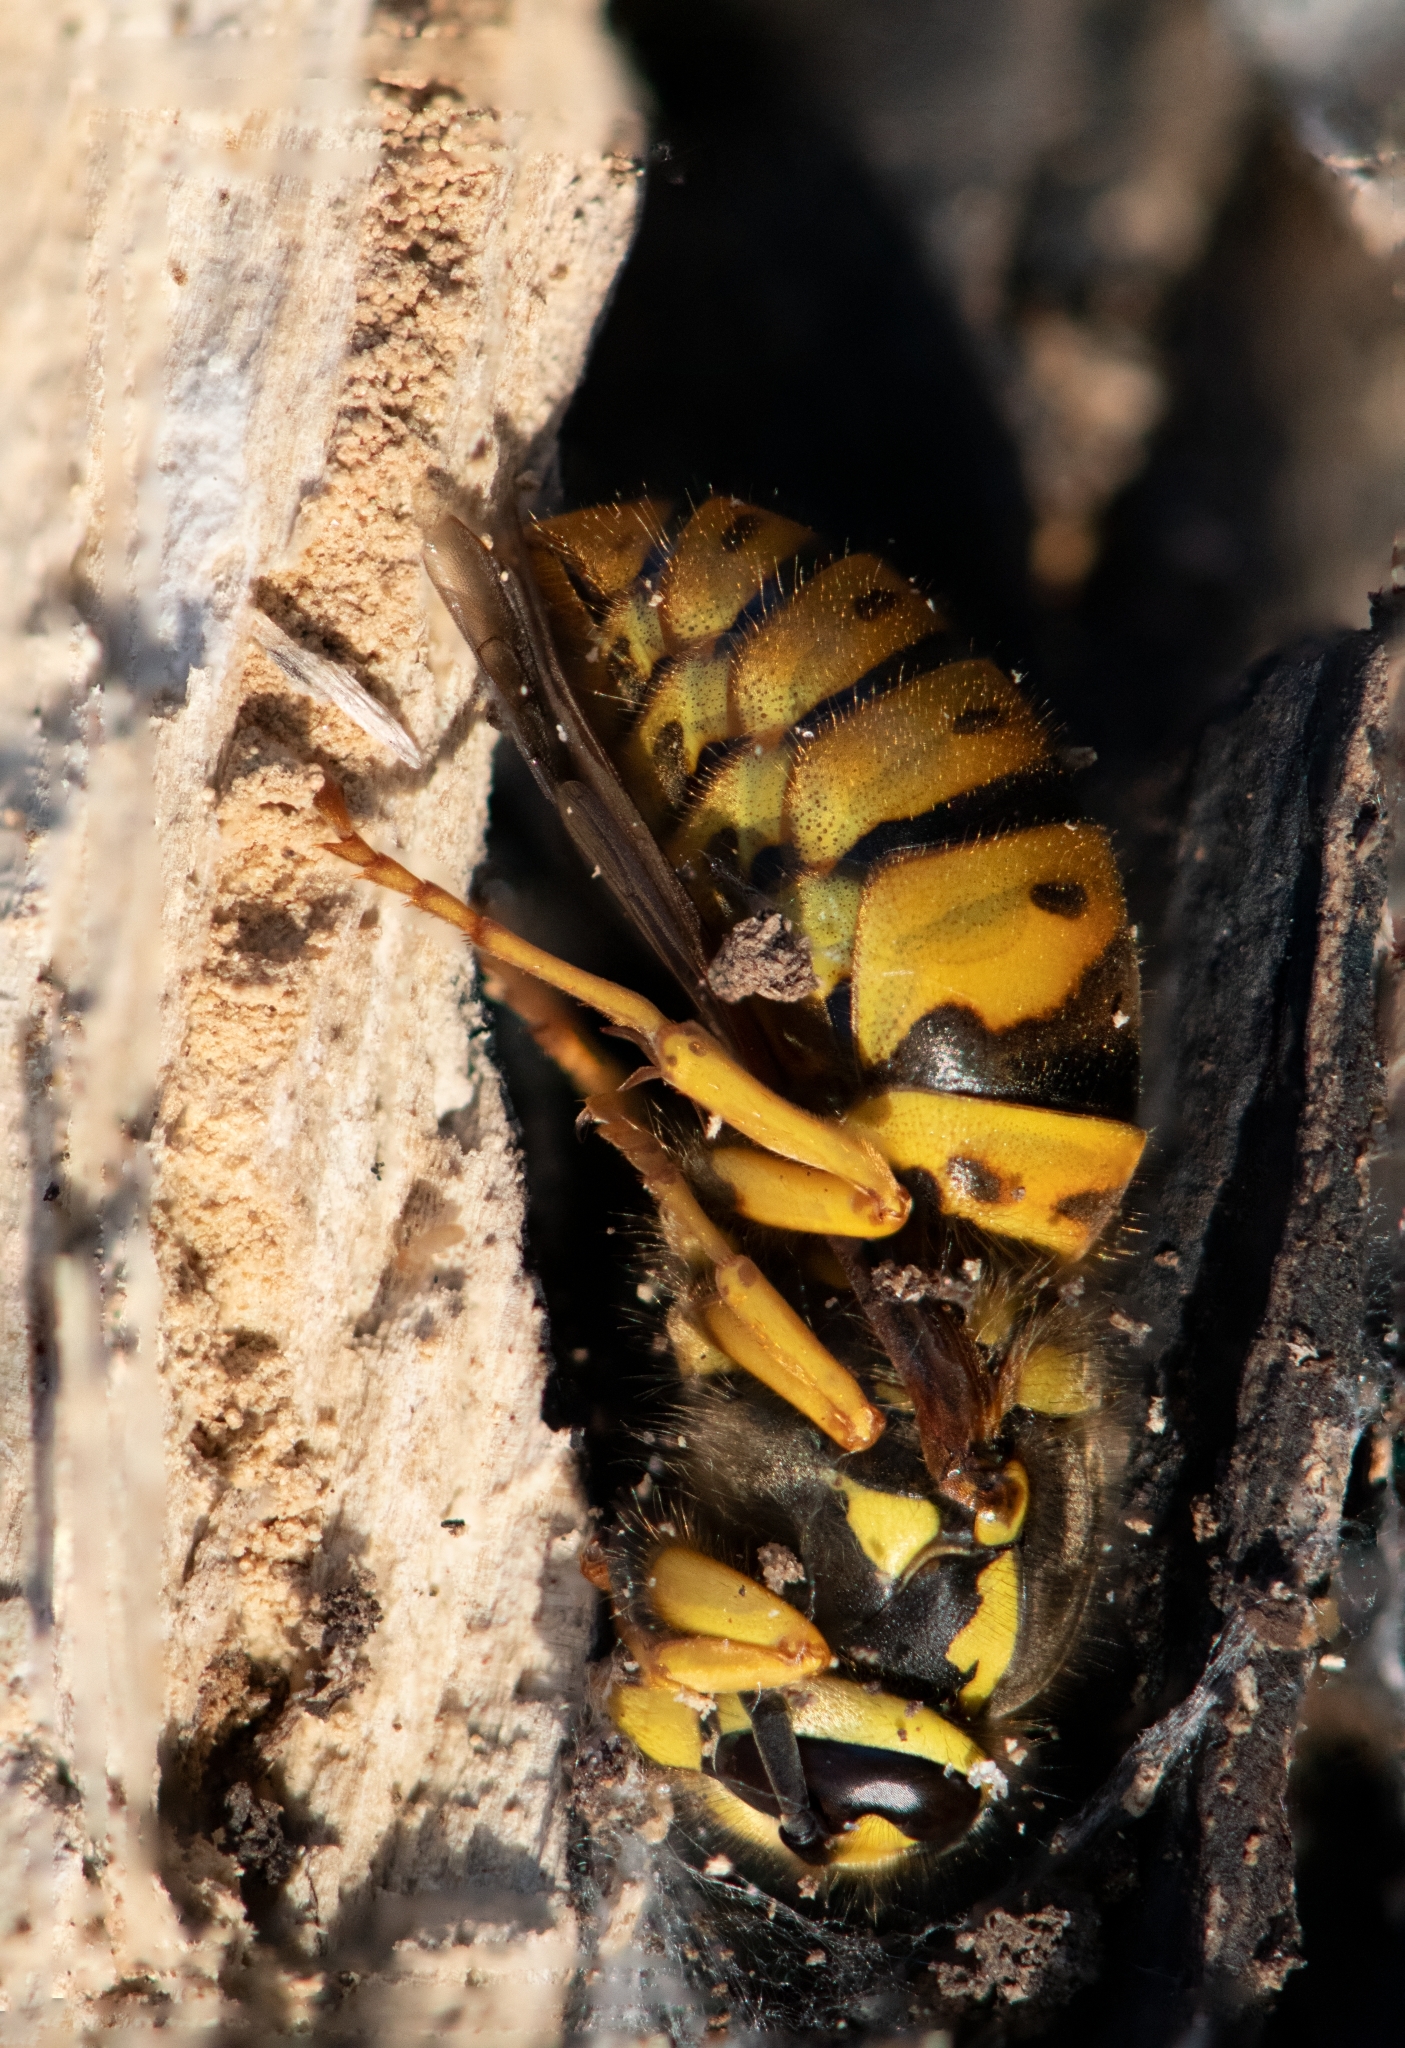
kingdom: Animalia
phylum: Arthropoda
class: Insecta
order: Hymenoptera
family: Vespidae
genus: Vespula
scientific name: Vespula maculifrons
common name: Eastern yellowjacket
